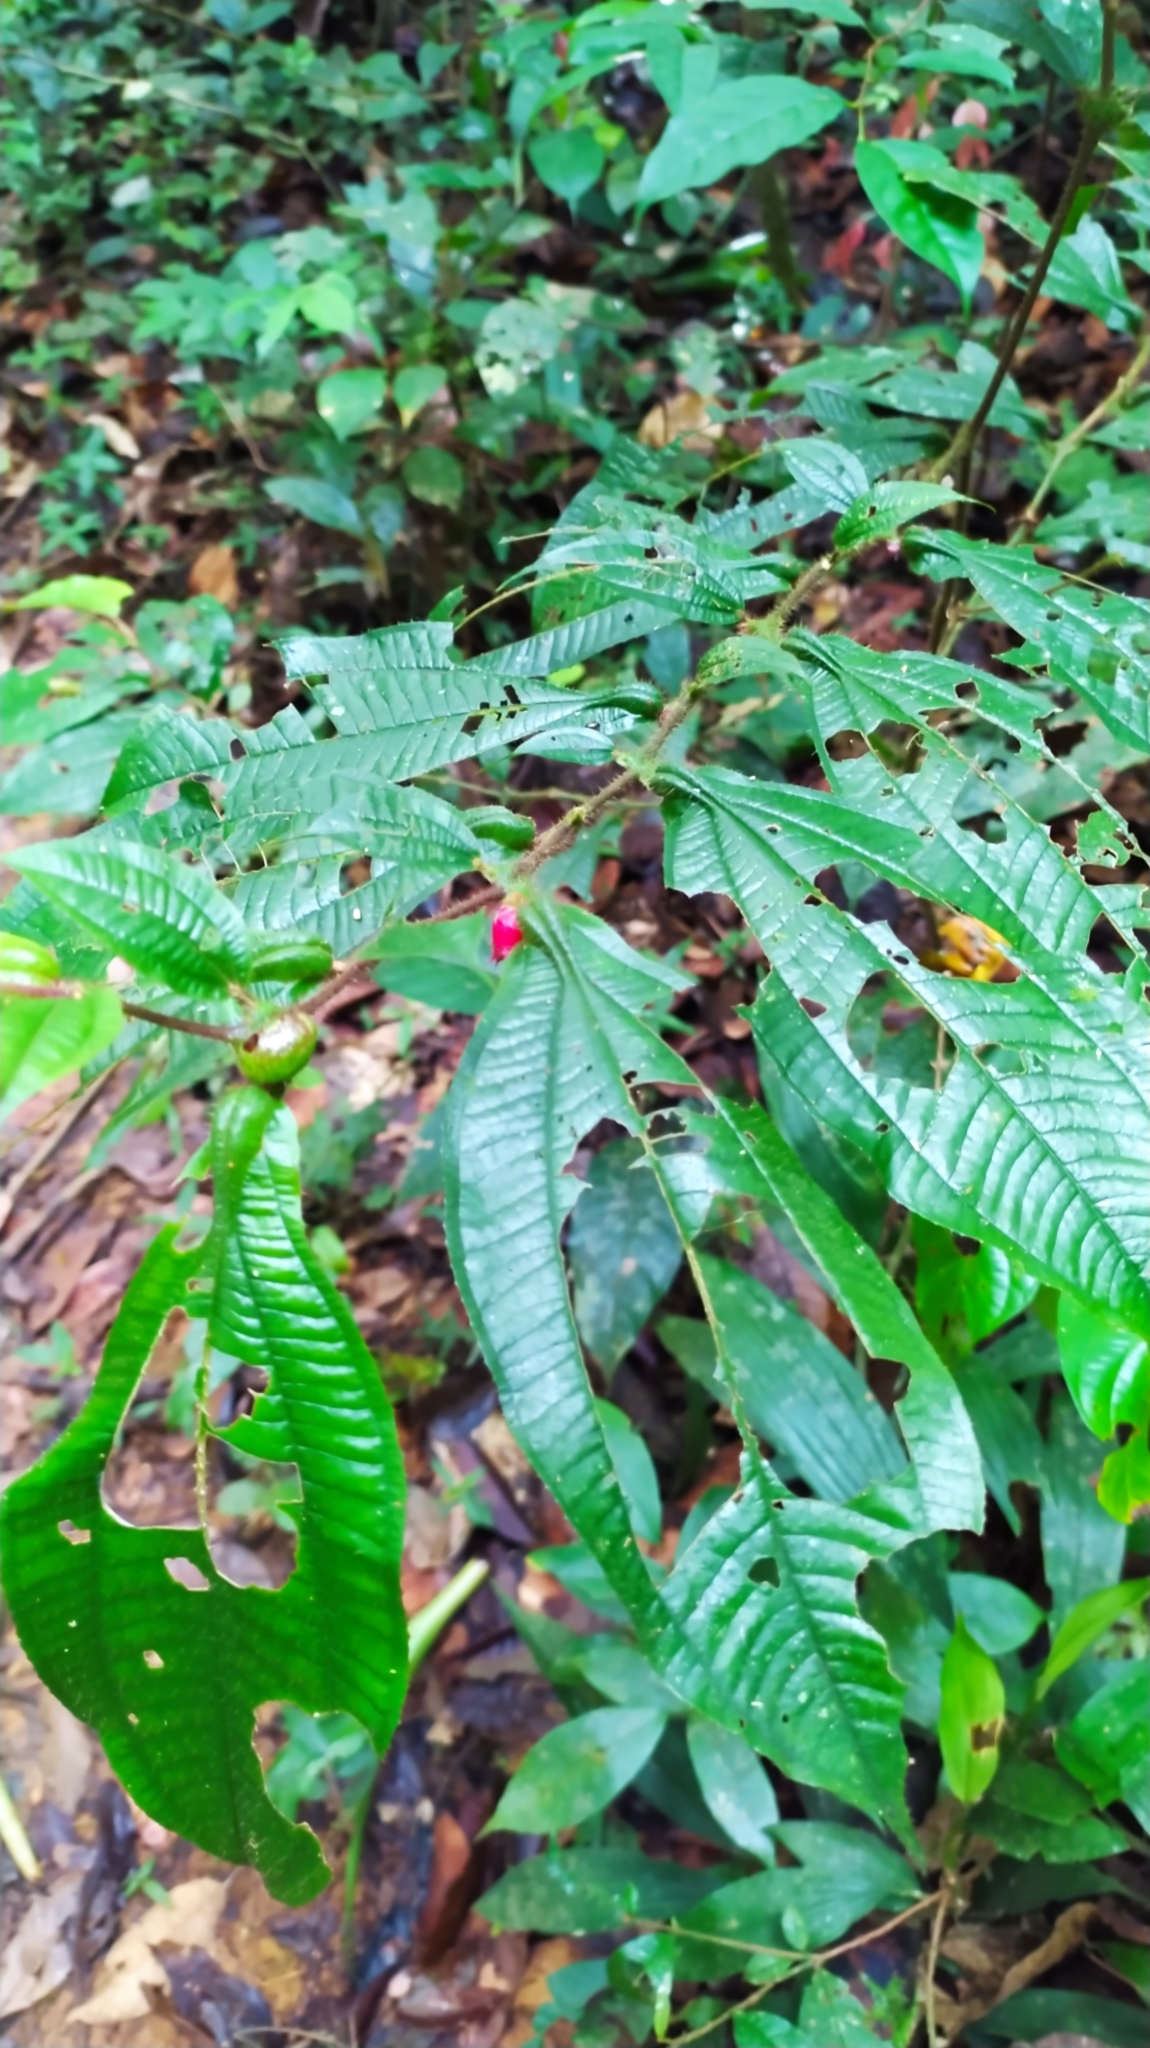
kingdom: Plantae
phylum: Tracheophyta
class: Magnoliopsida
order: Myrtales
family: Melastomataceae
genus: Miconia
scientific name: Miconia mayeta
